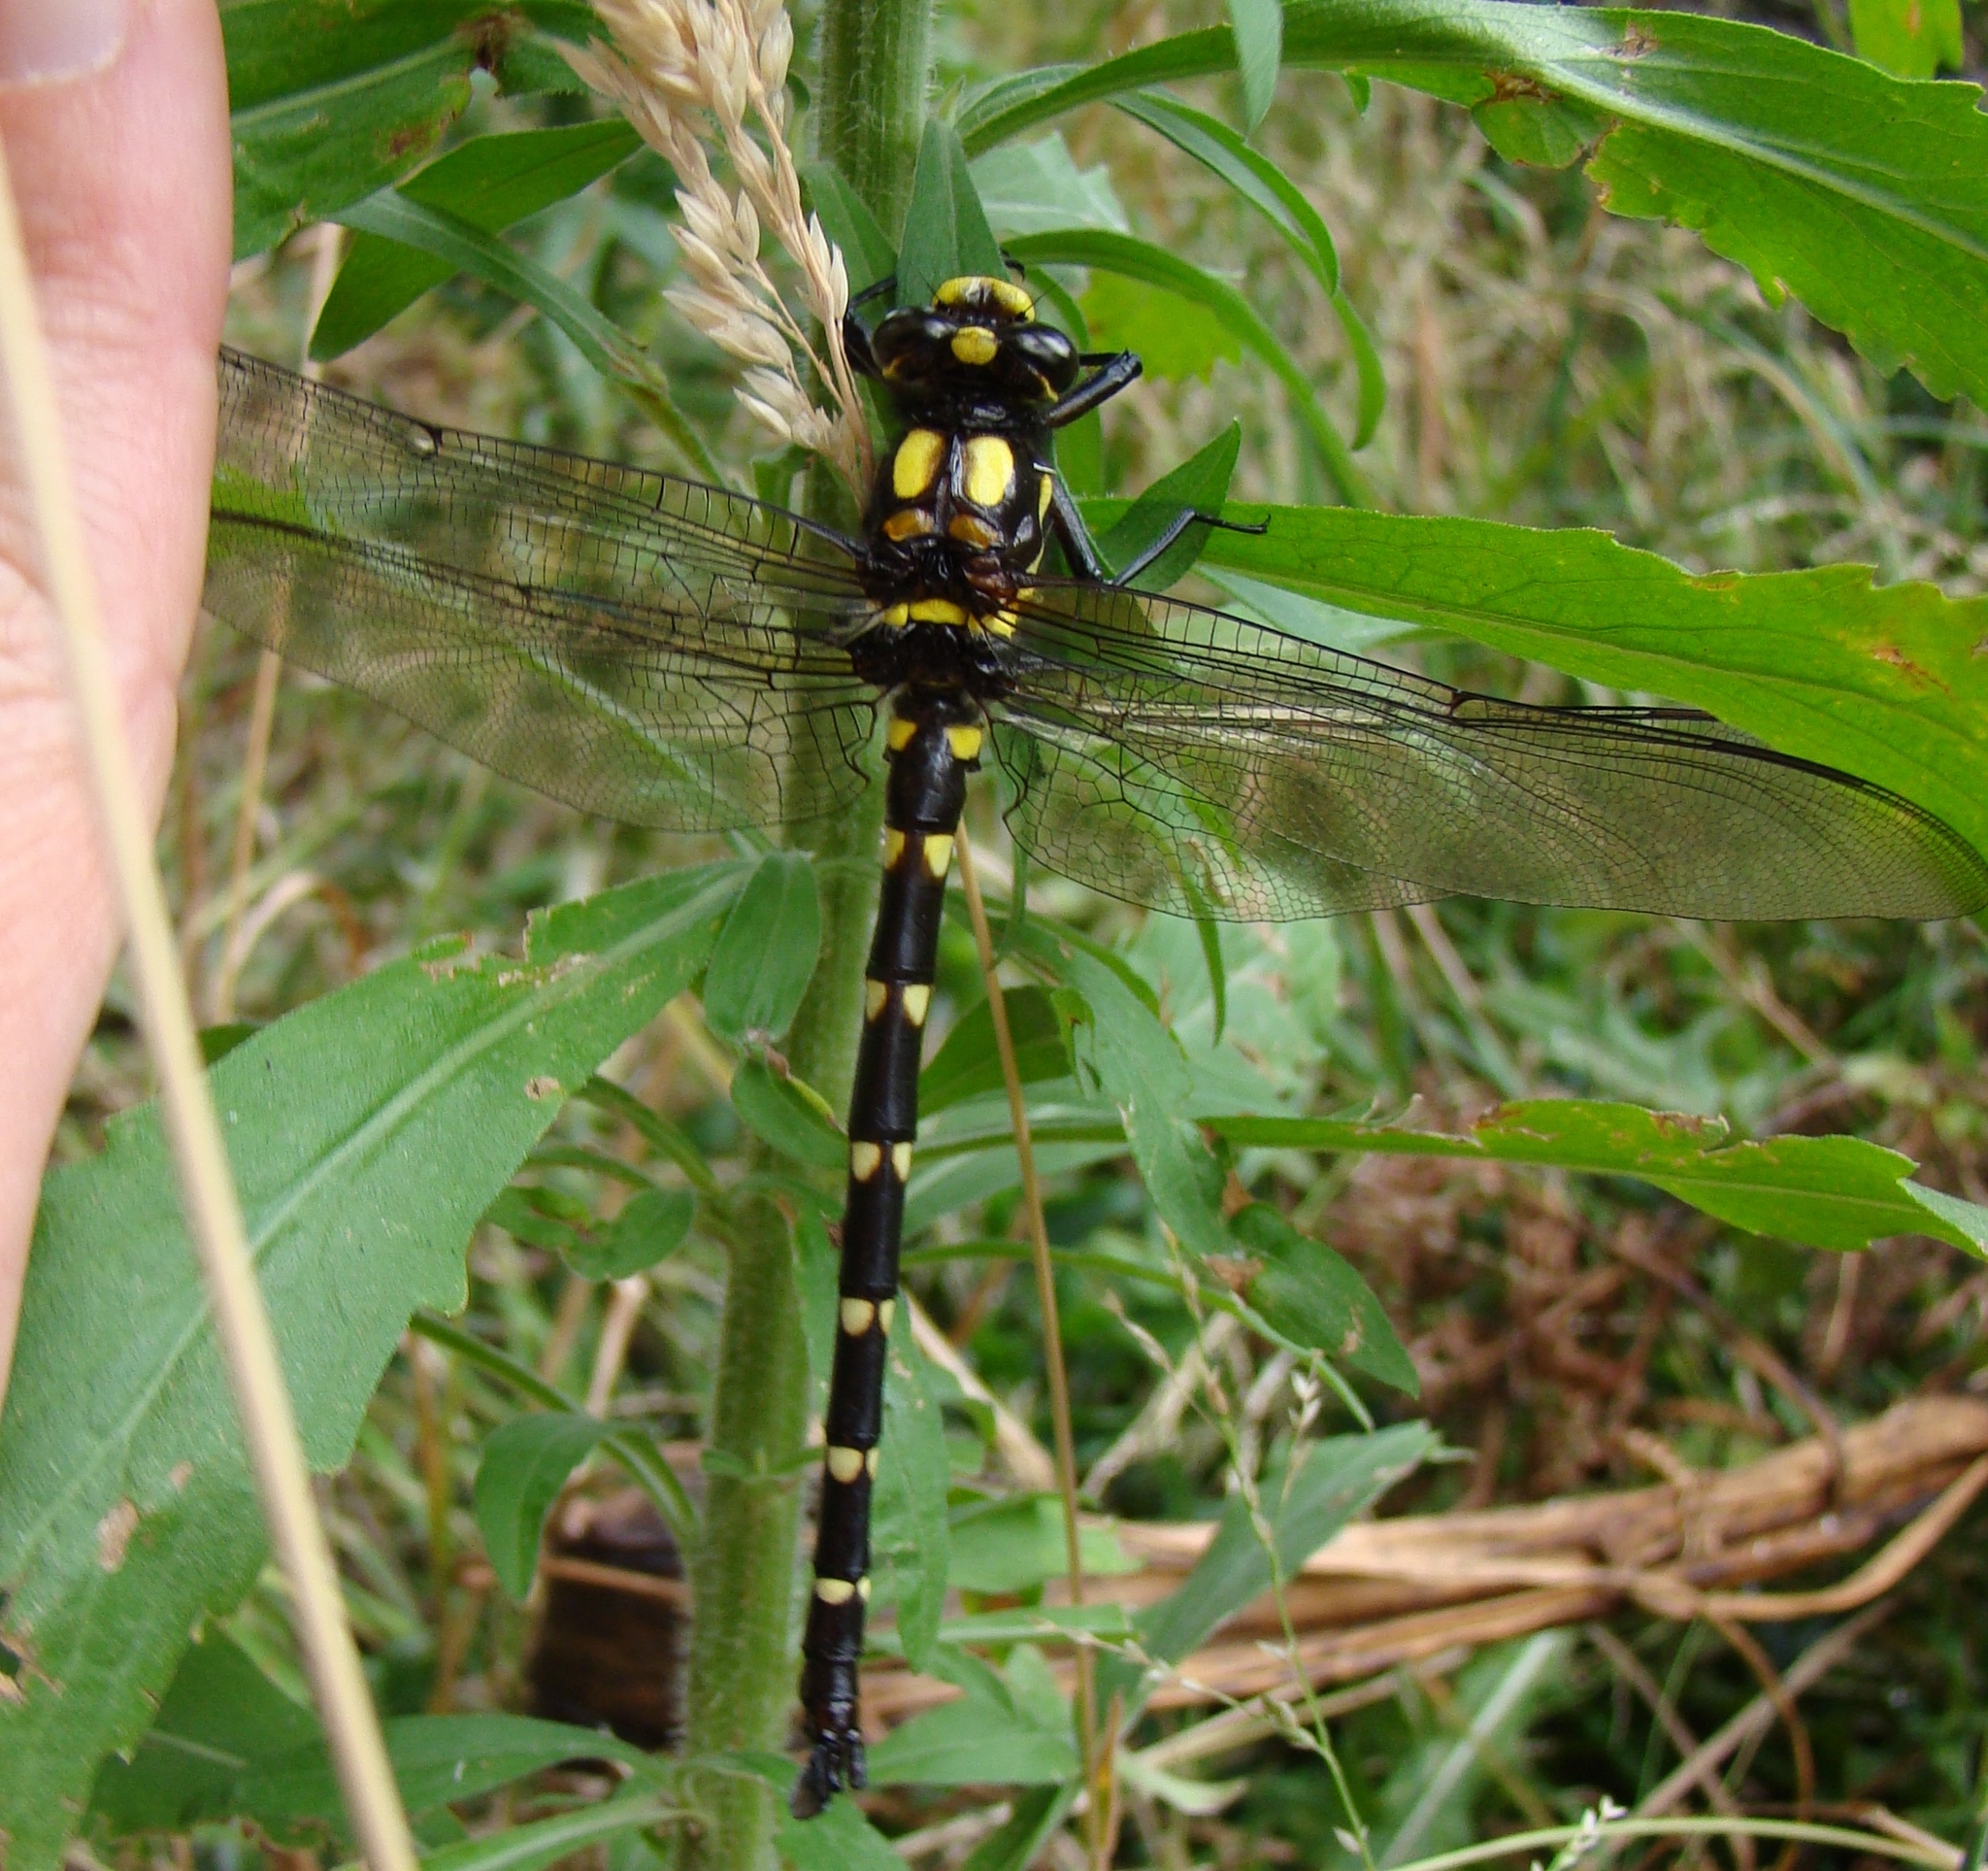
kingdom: Animalia
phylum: Arthropoda
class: Insecta
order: Odonata
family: Petaluridae
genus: Uropetala
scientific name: Uropetala carovei
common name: Bush giant dragonfly
